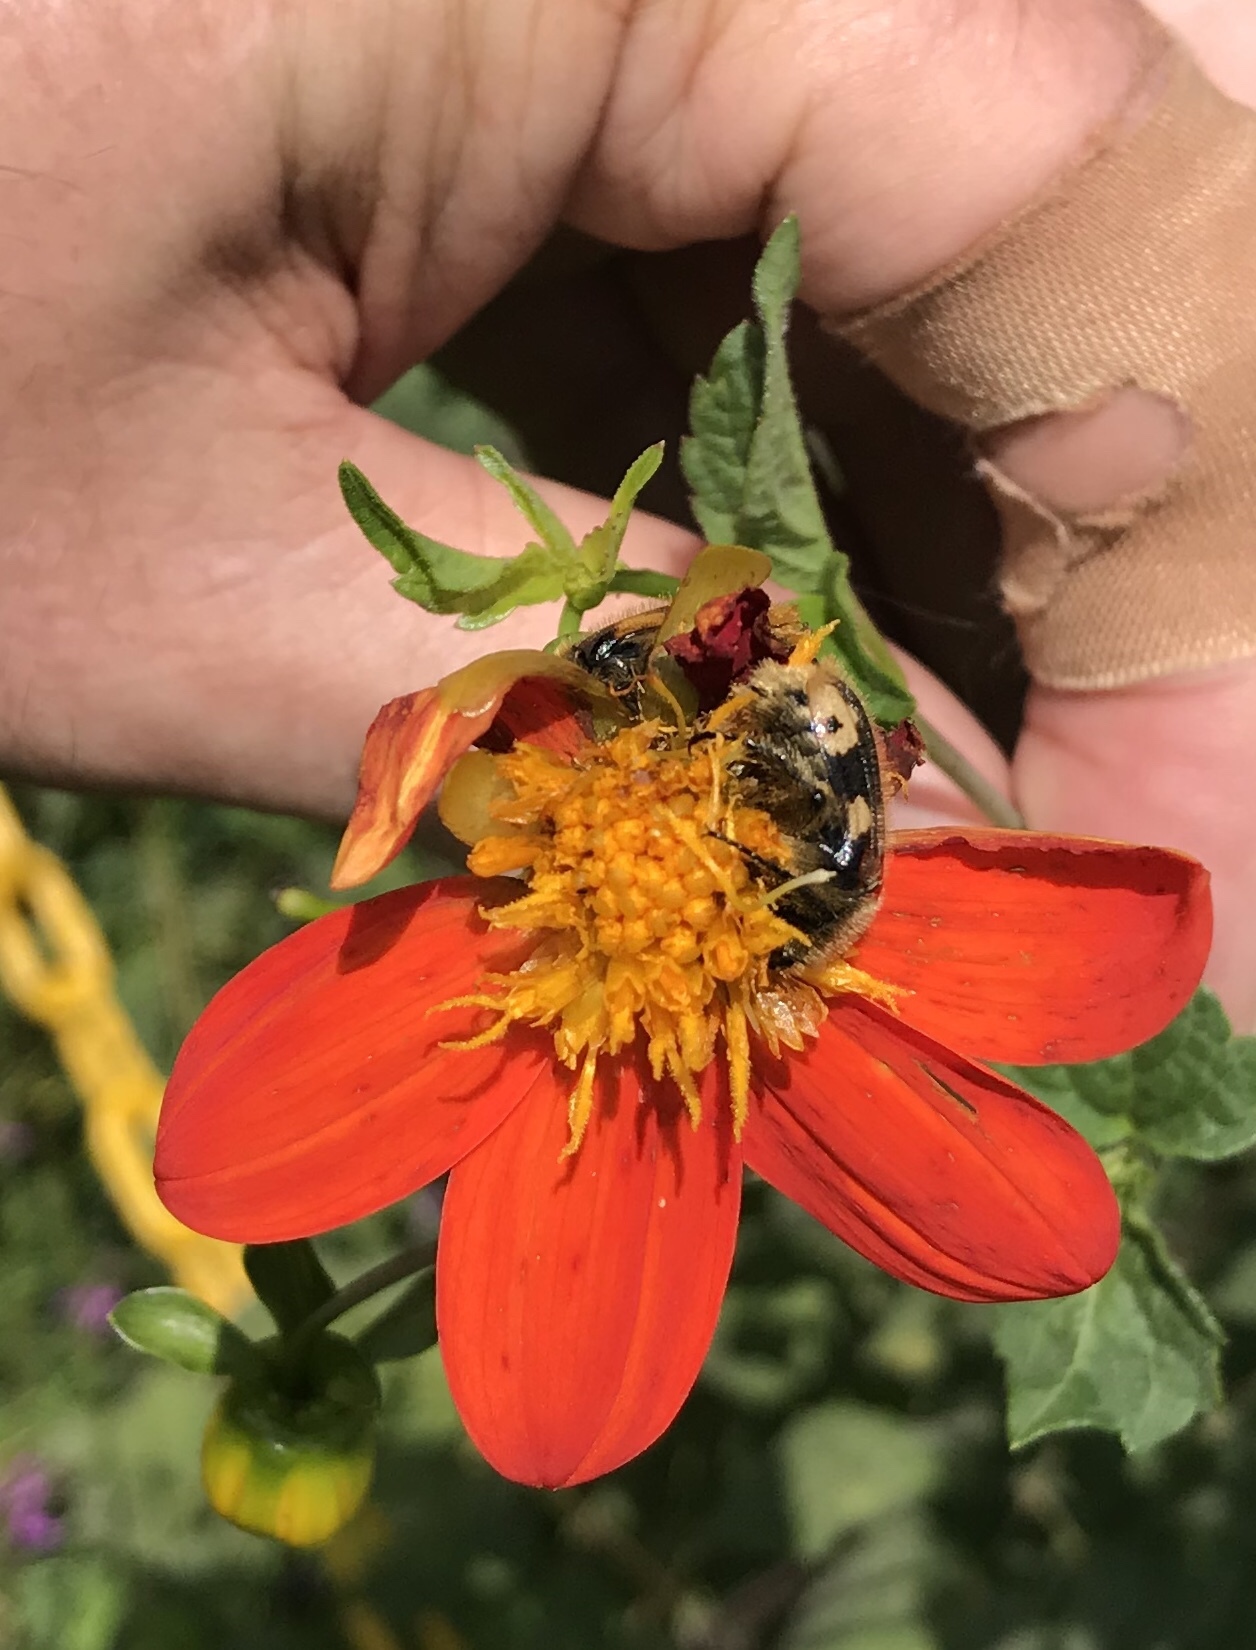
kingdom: Plantae
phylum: Tracheophyta
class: Magnoliopsida
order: Asterales
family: Asteraceae
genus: Dahlia
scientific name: Dahlia coccinea
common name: Red dahlia
